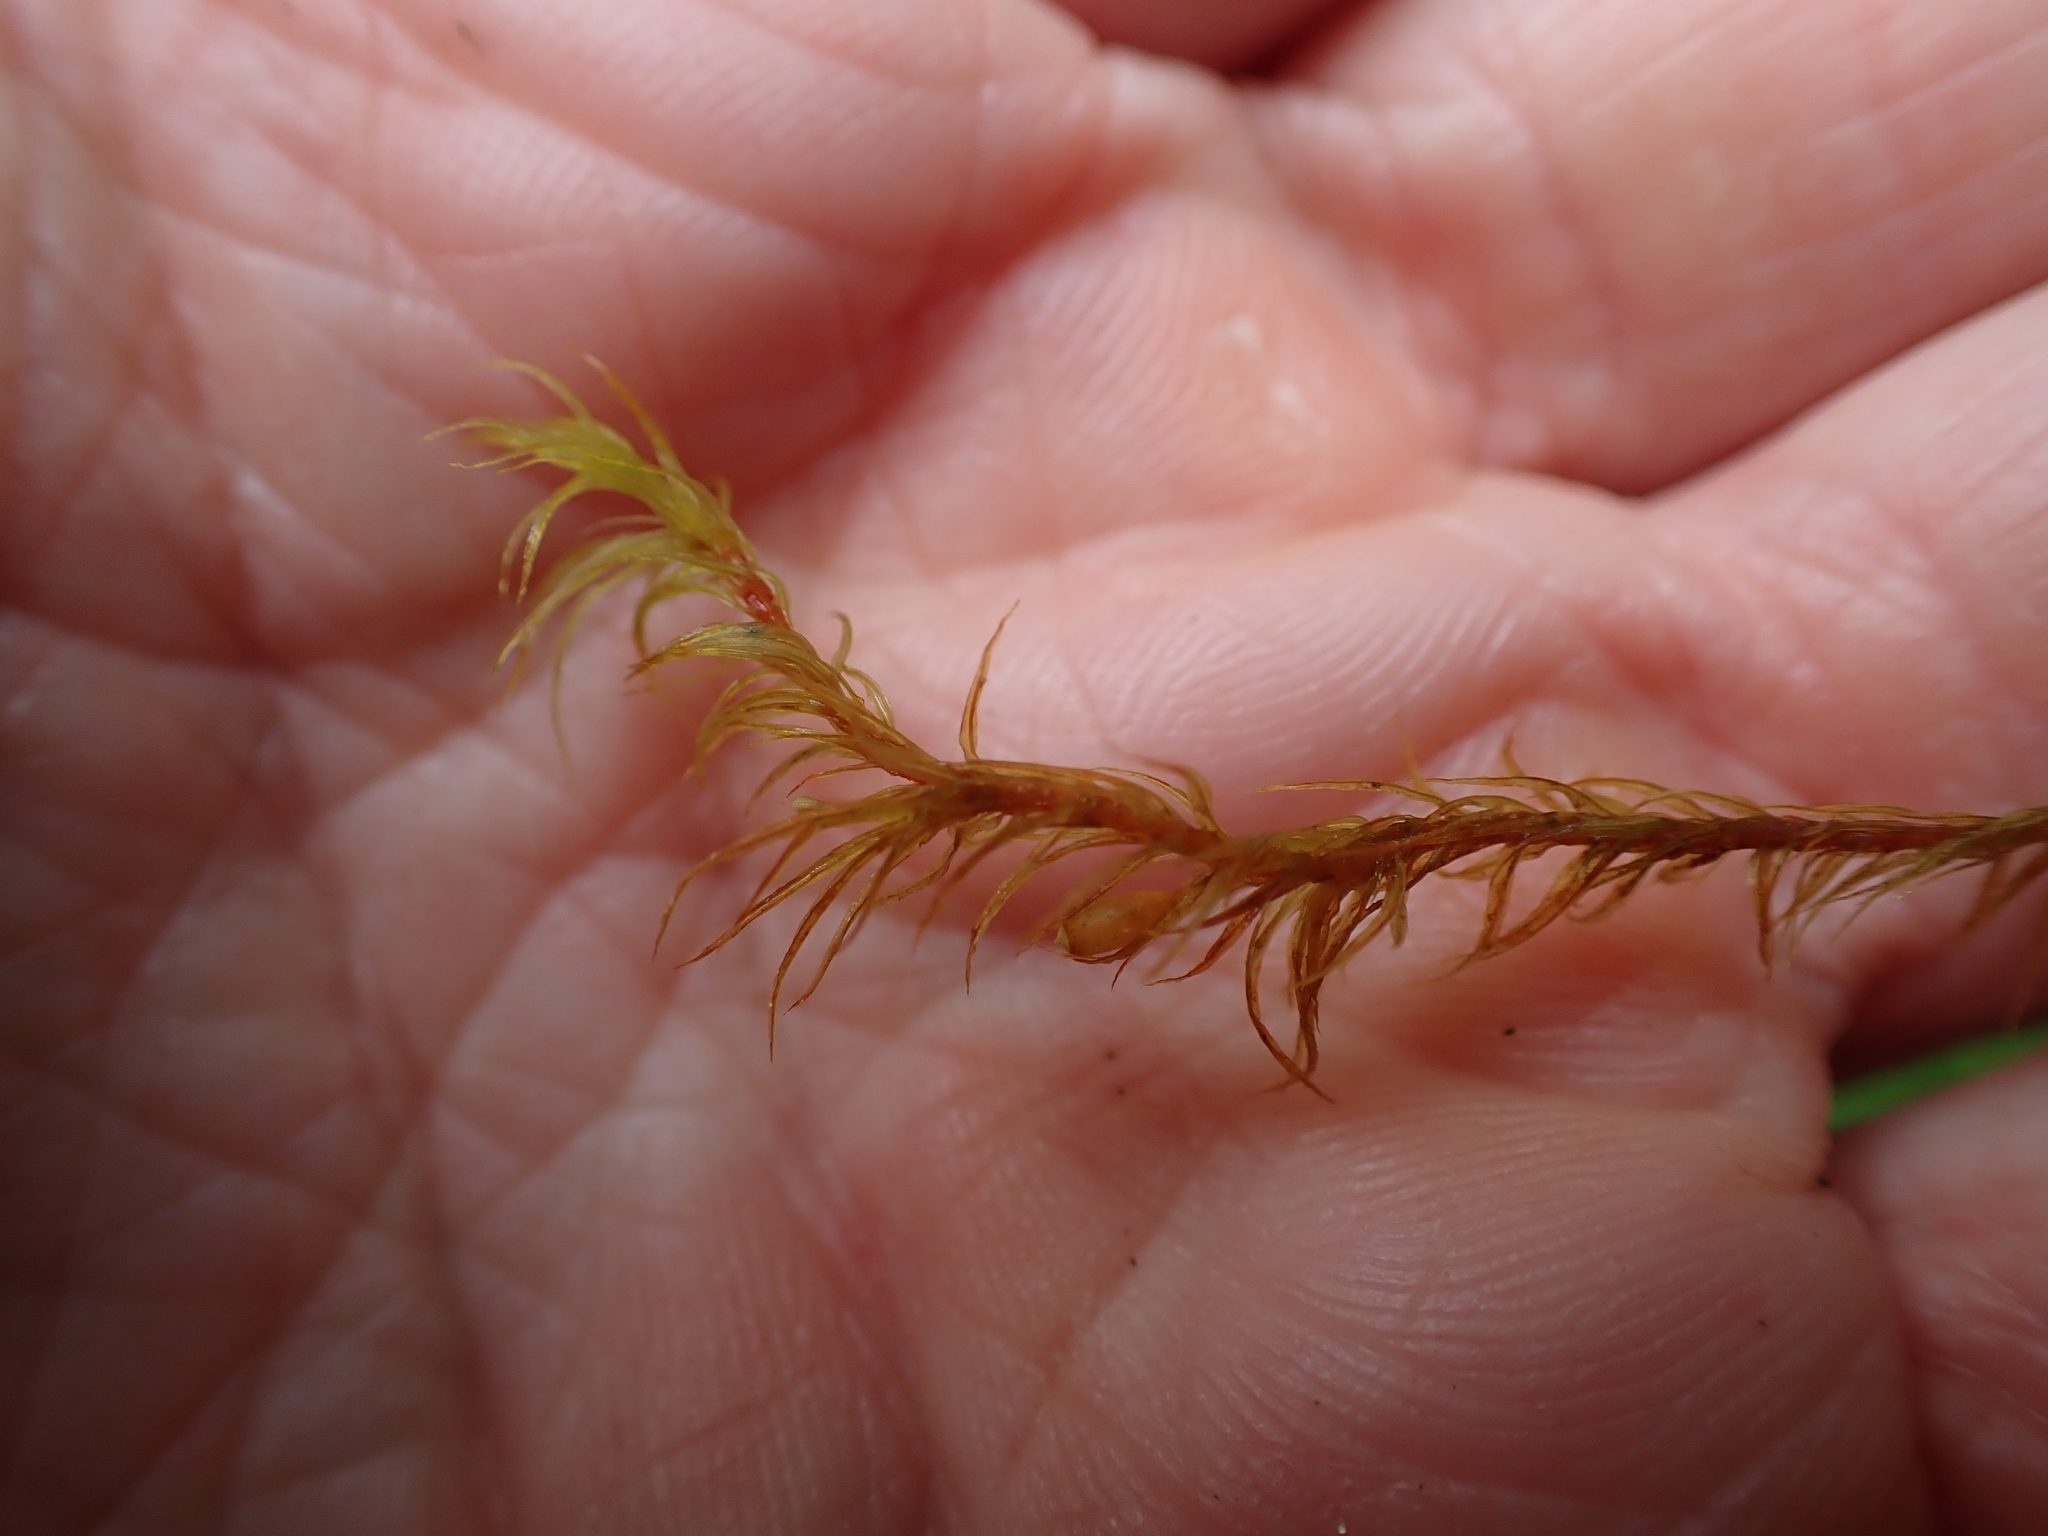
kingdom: Plantae
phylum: Bryophyta
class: Bryopsida
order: Orthotrichales
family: Orthotrichaceae
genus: Pulvigera
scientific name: Pulvigera lyellii
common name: Lyell's bristle-moss
